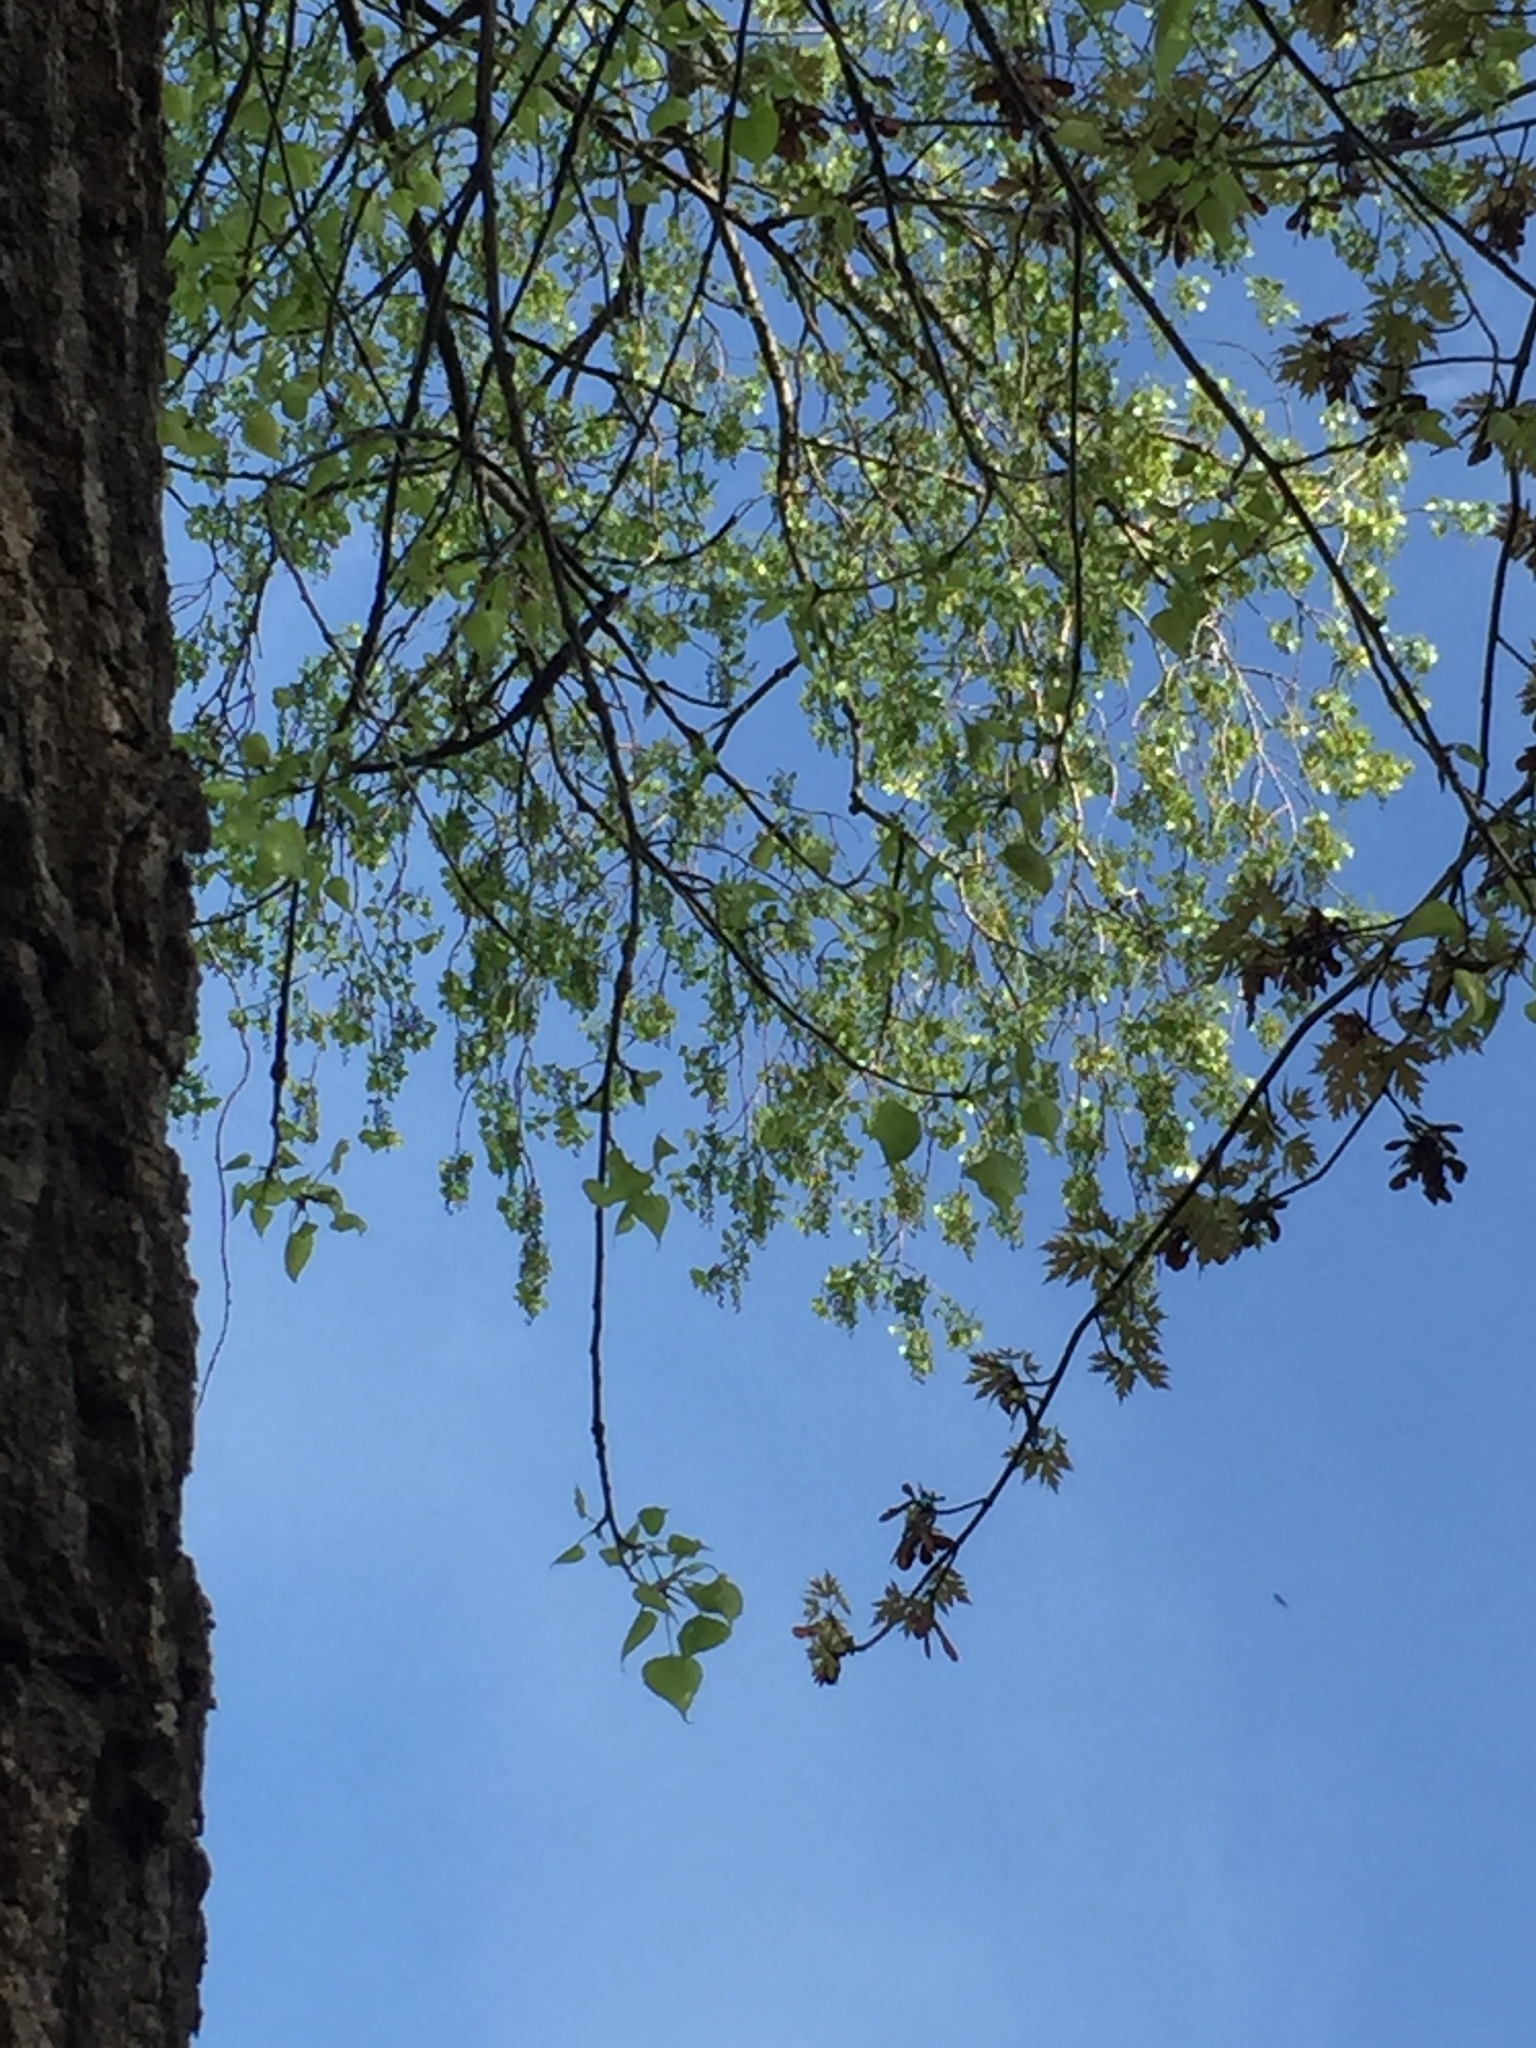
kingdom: Plantae
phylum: Tracheophyta
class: Magnoliopsida
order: Malpighiales
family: Salicaceae
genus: Populus
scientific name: Populus deltoides
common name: Eastern cottonwood
